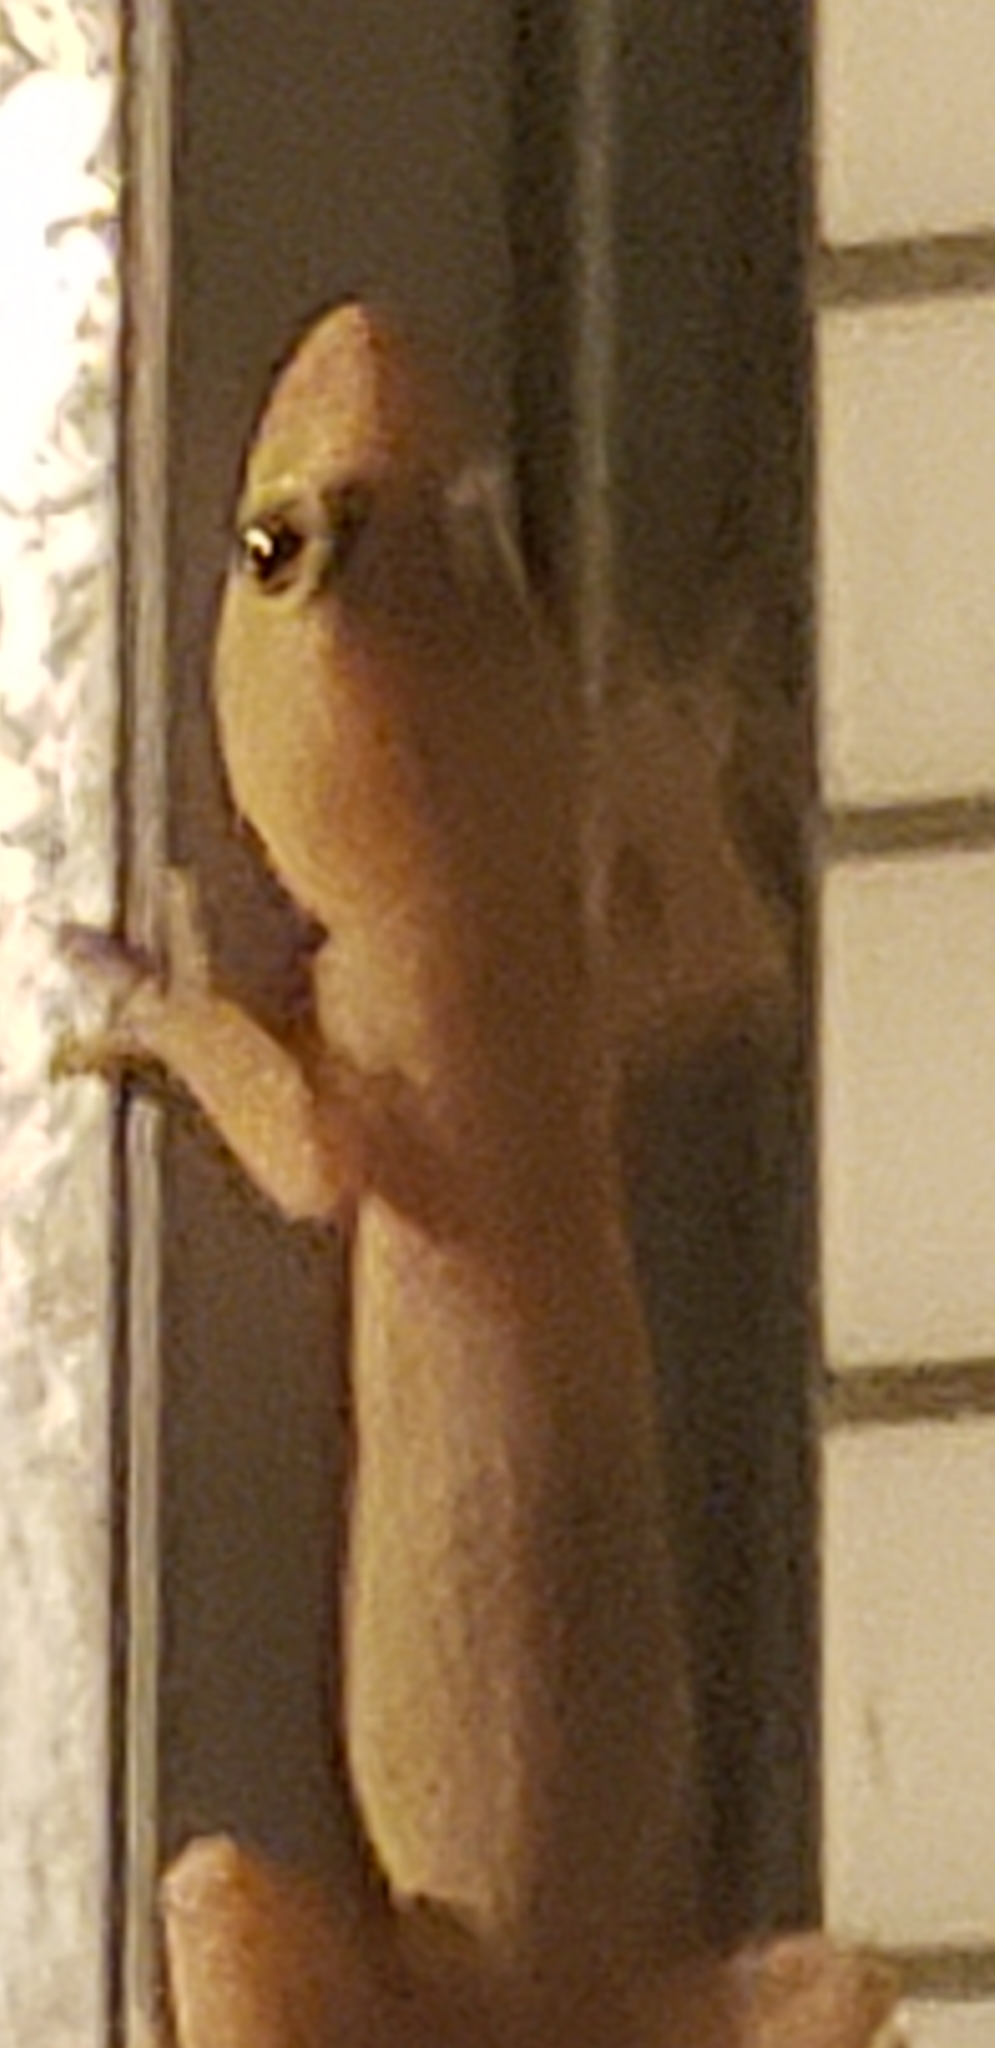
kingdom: Animalia
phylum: Chordata
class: Squamata
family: Gekkonidae
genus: Hemidactylus
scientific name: Hemidactylus mabouia
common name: House gecko
